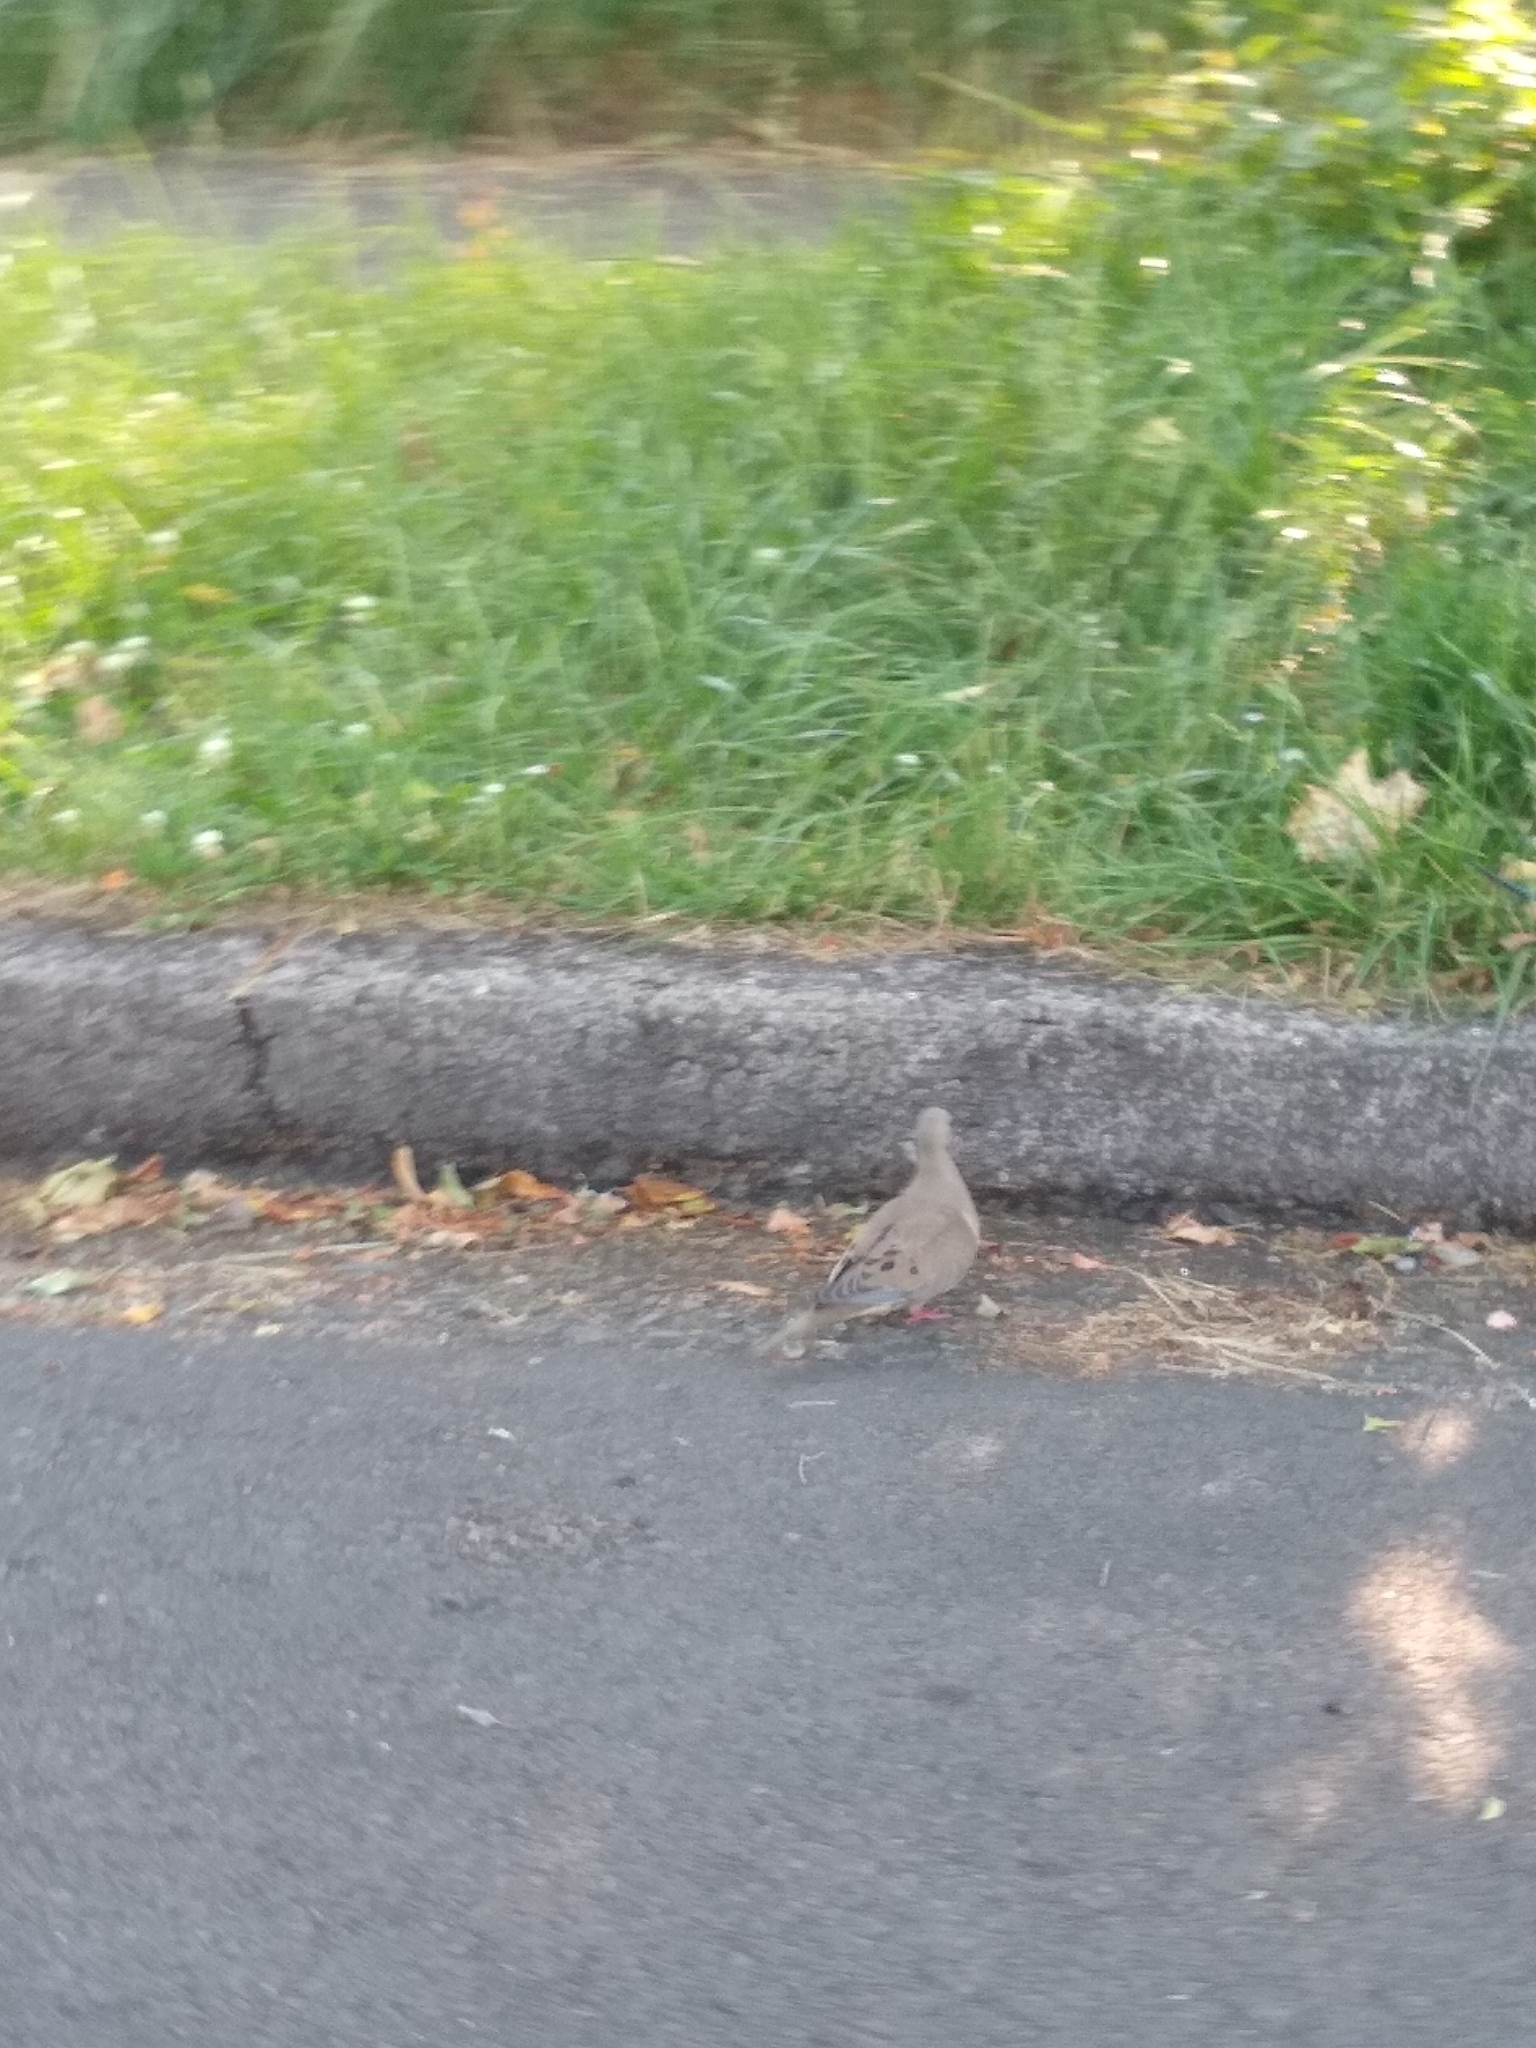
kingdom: Animalia
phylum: Chordata
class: Aves
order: Columbiformes
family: Columbidae
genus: Zenaida
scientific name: Zenaida macroura
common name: Mourning dove
